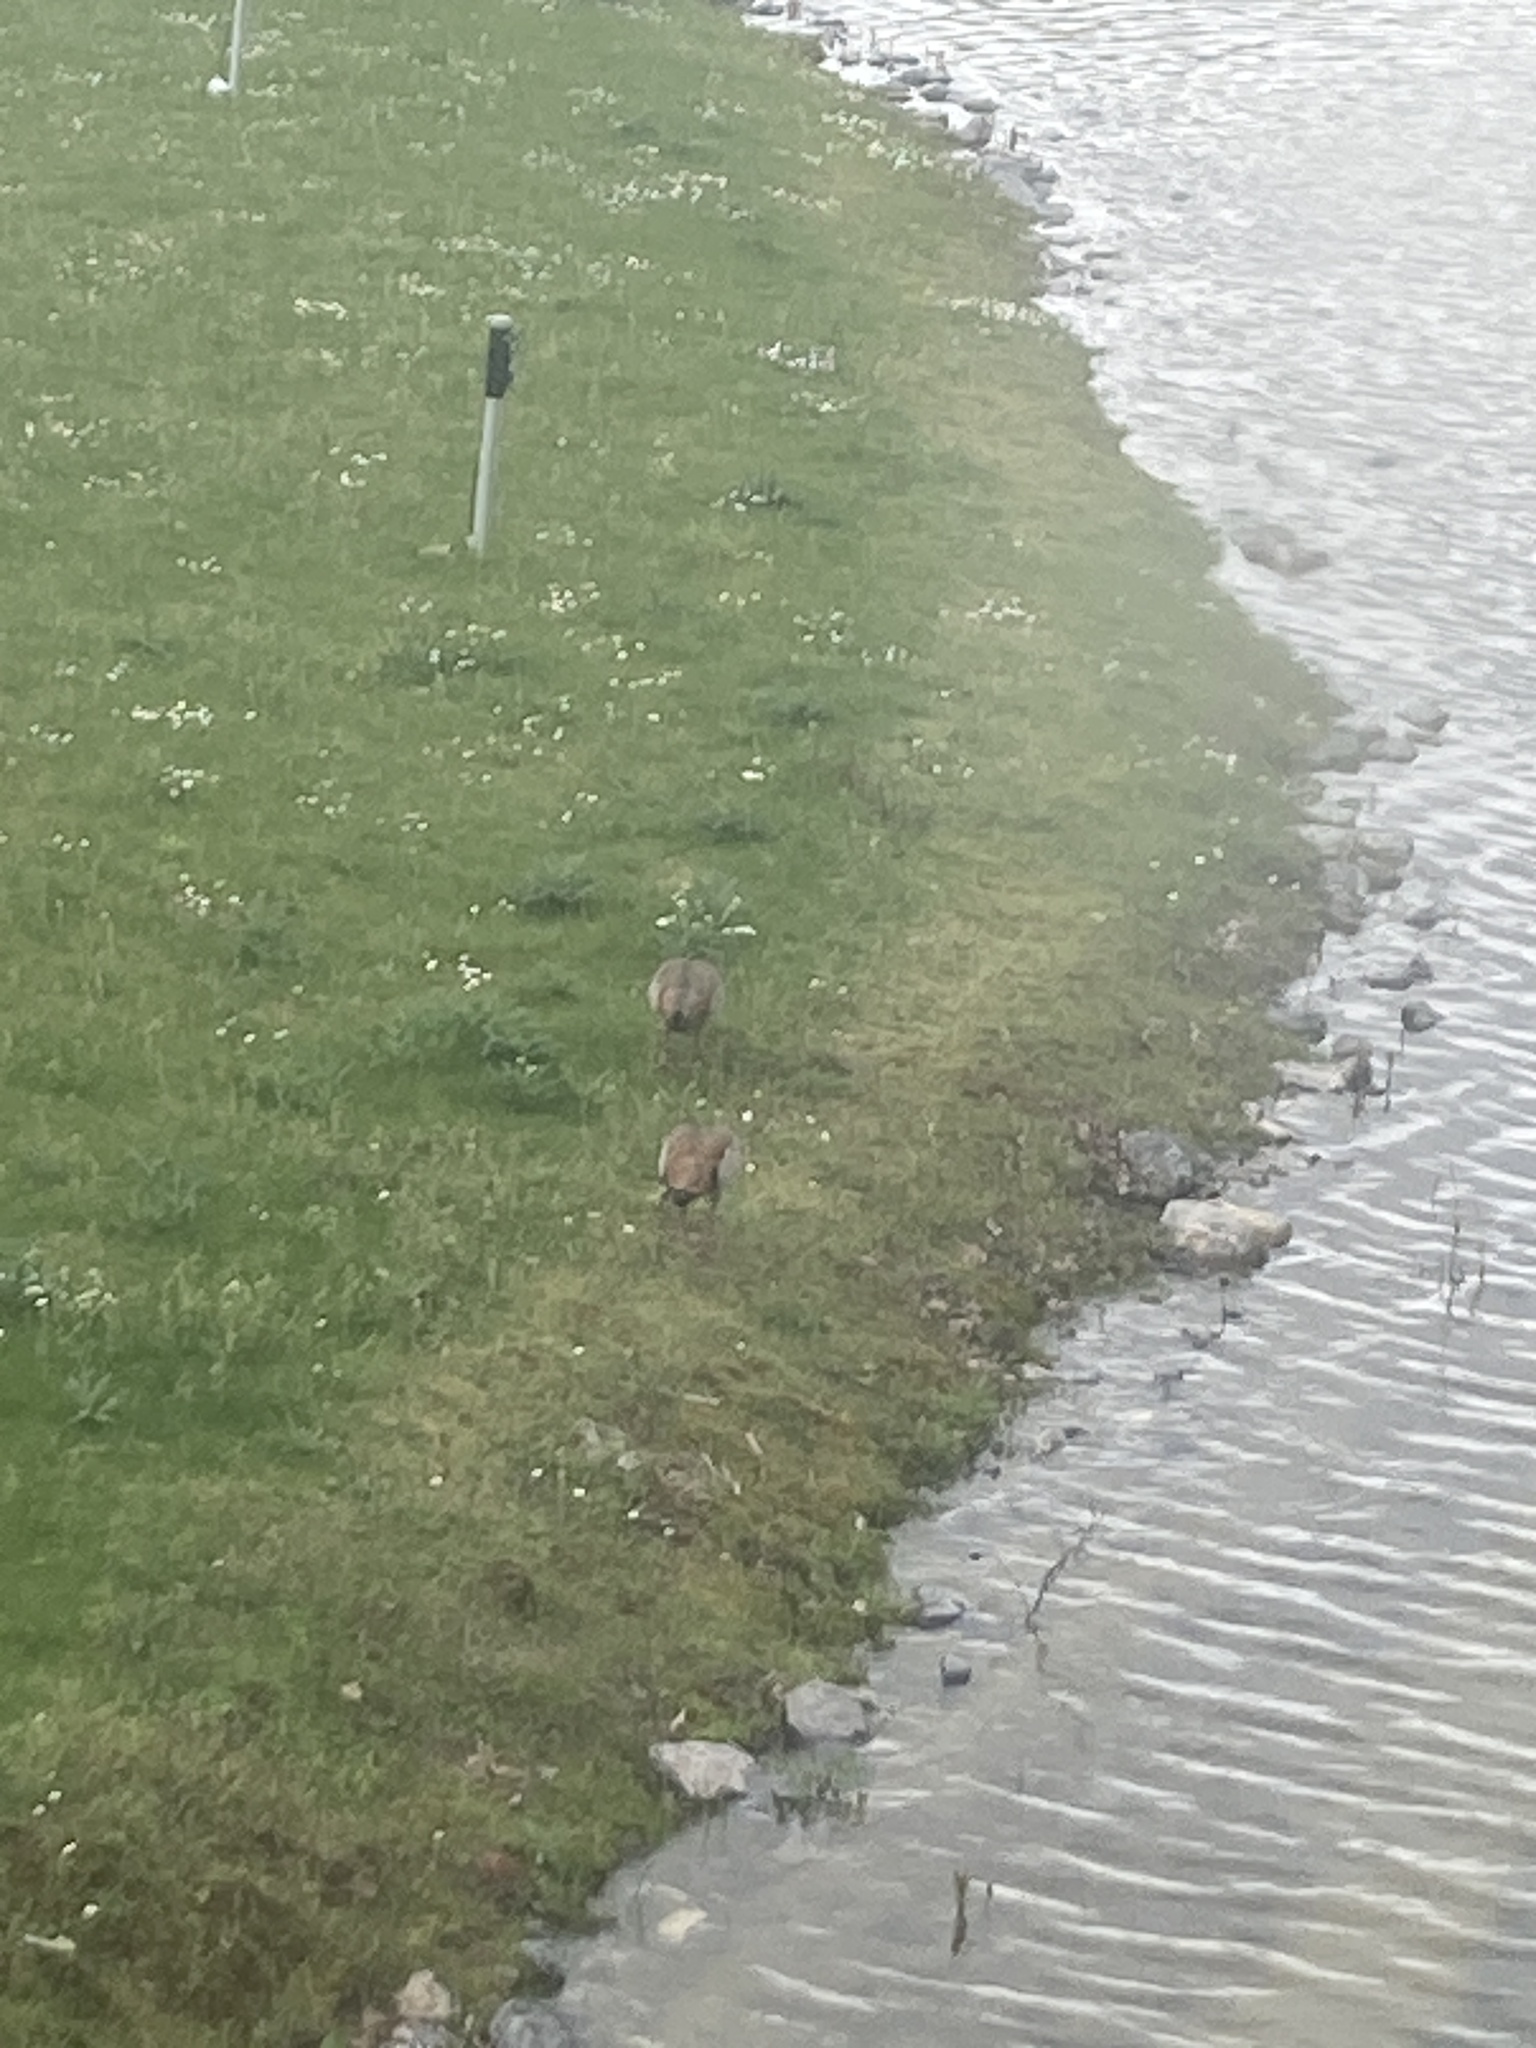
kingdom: Animalia
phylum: Chordata
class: Aves
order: Anseriformes
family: Anatidae
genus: Alopochen
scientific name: Alopochen aegyptiaca
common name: Egyptian goose
